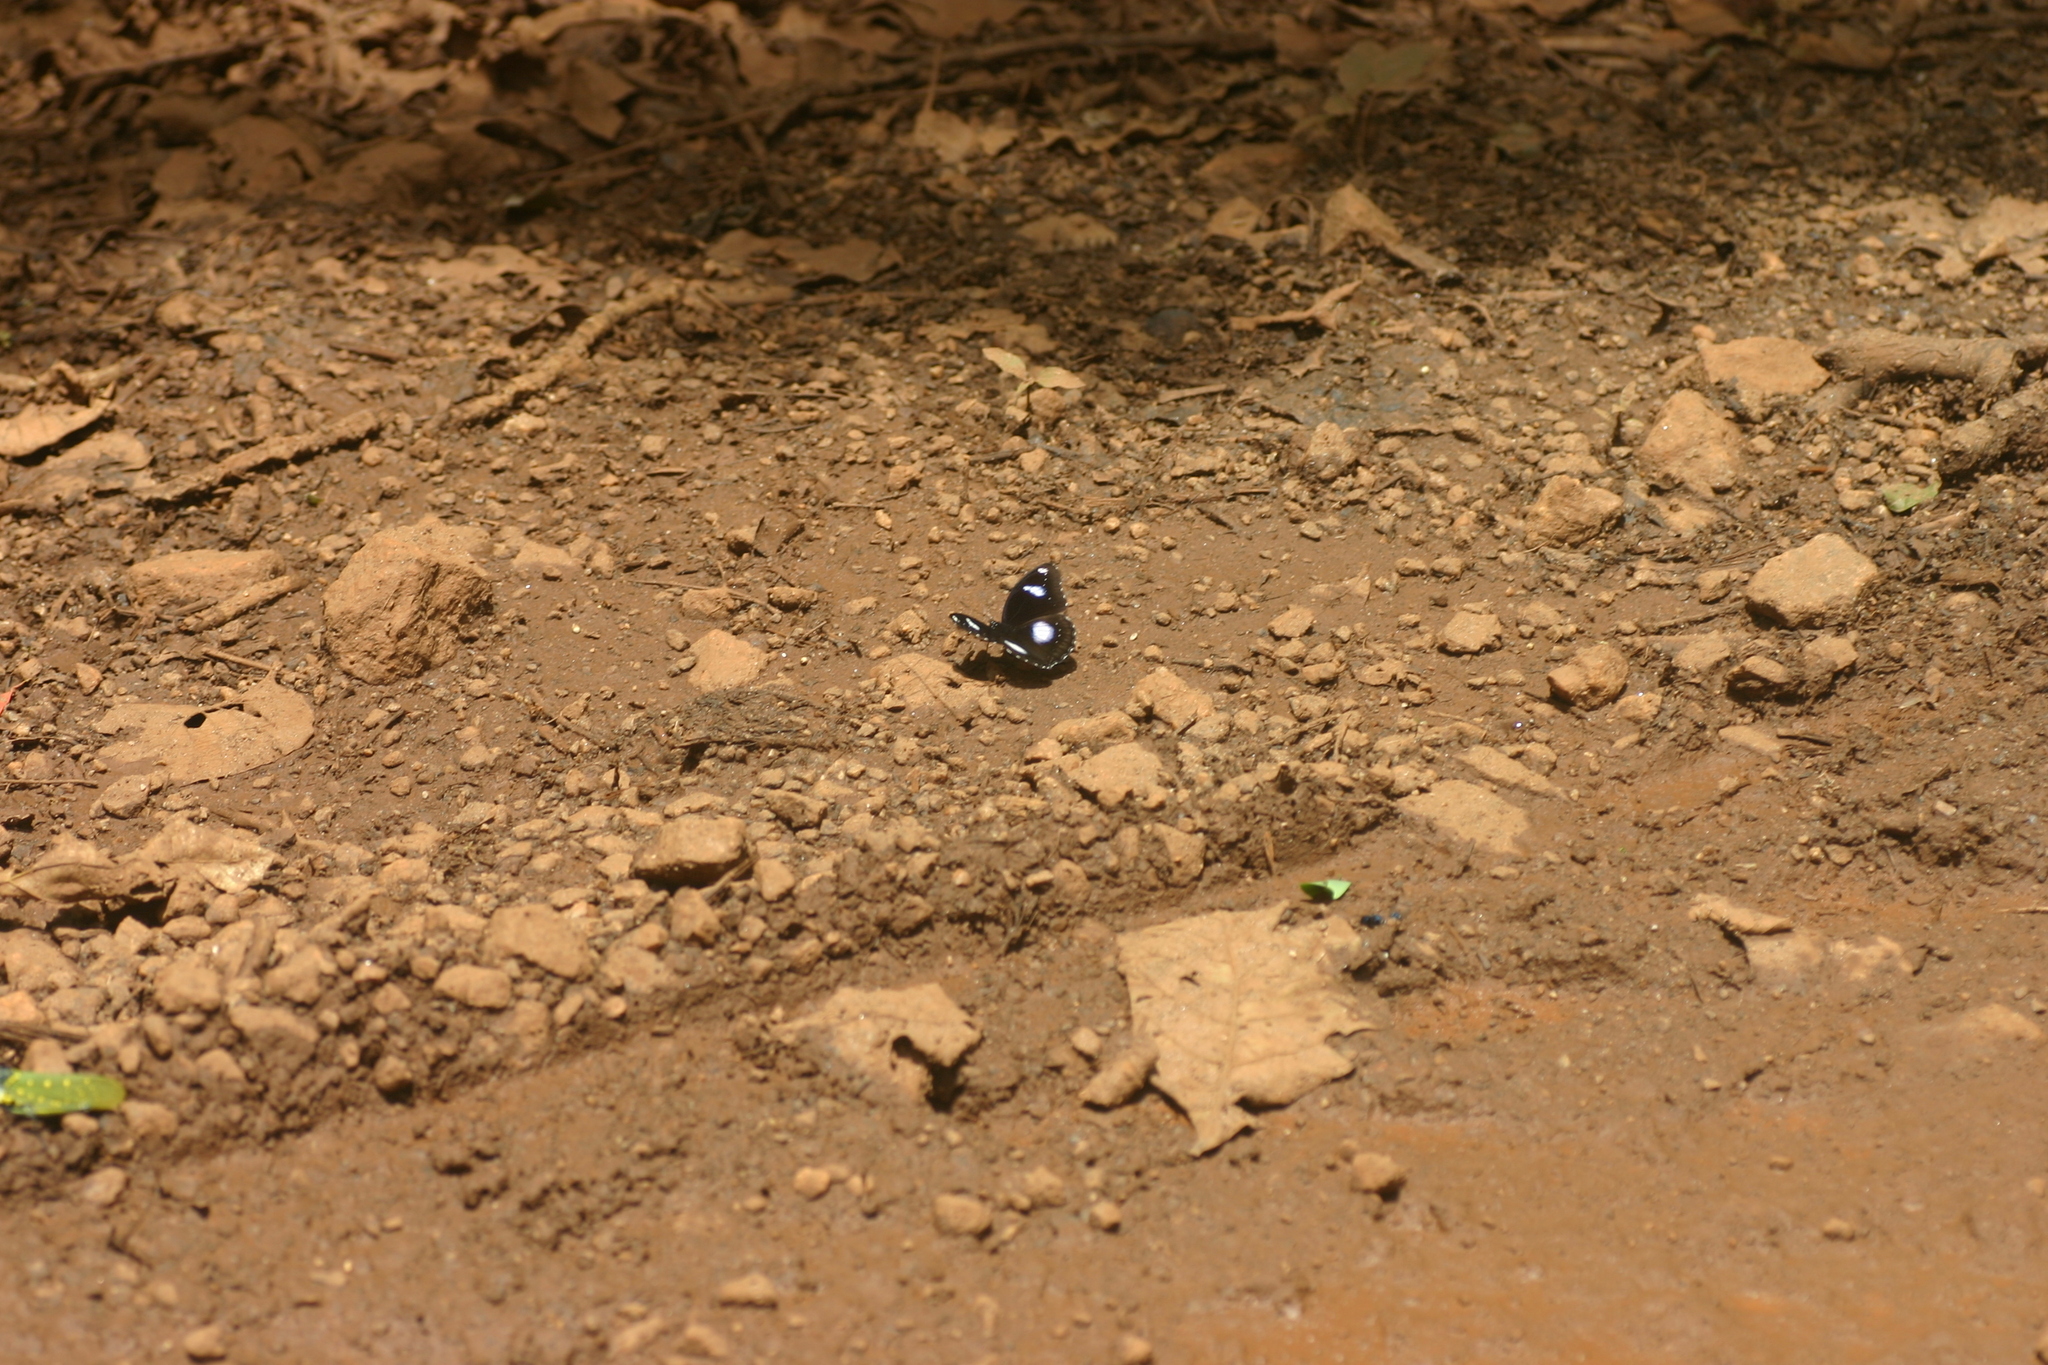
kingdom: Animalia
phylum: Arthropoda
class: Insecta
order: Lepidoptera
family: Nymphalidae
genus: Hypolimnas
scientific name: Hypolimnas bolina
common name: Great eggfly
